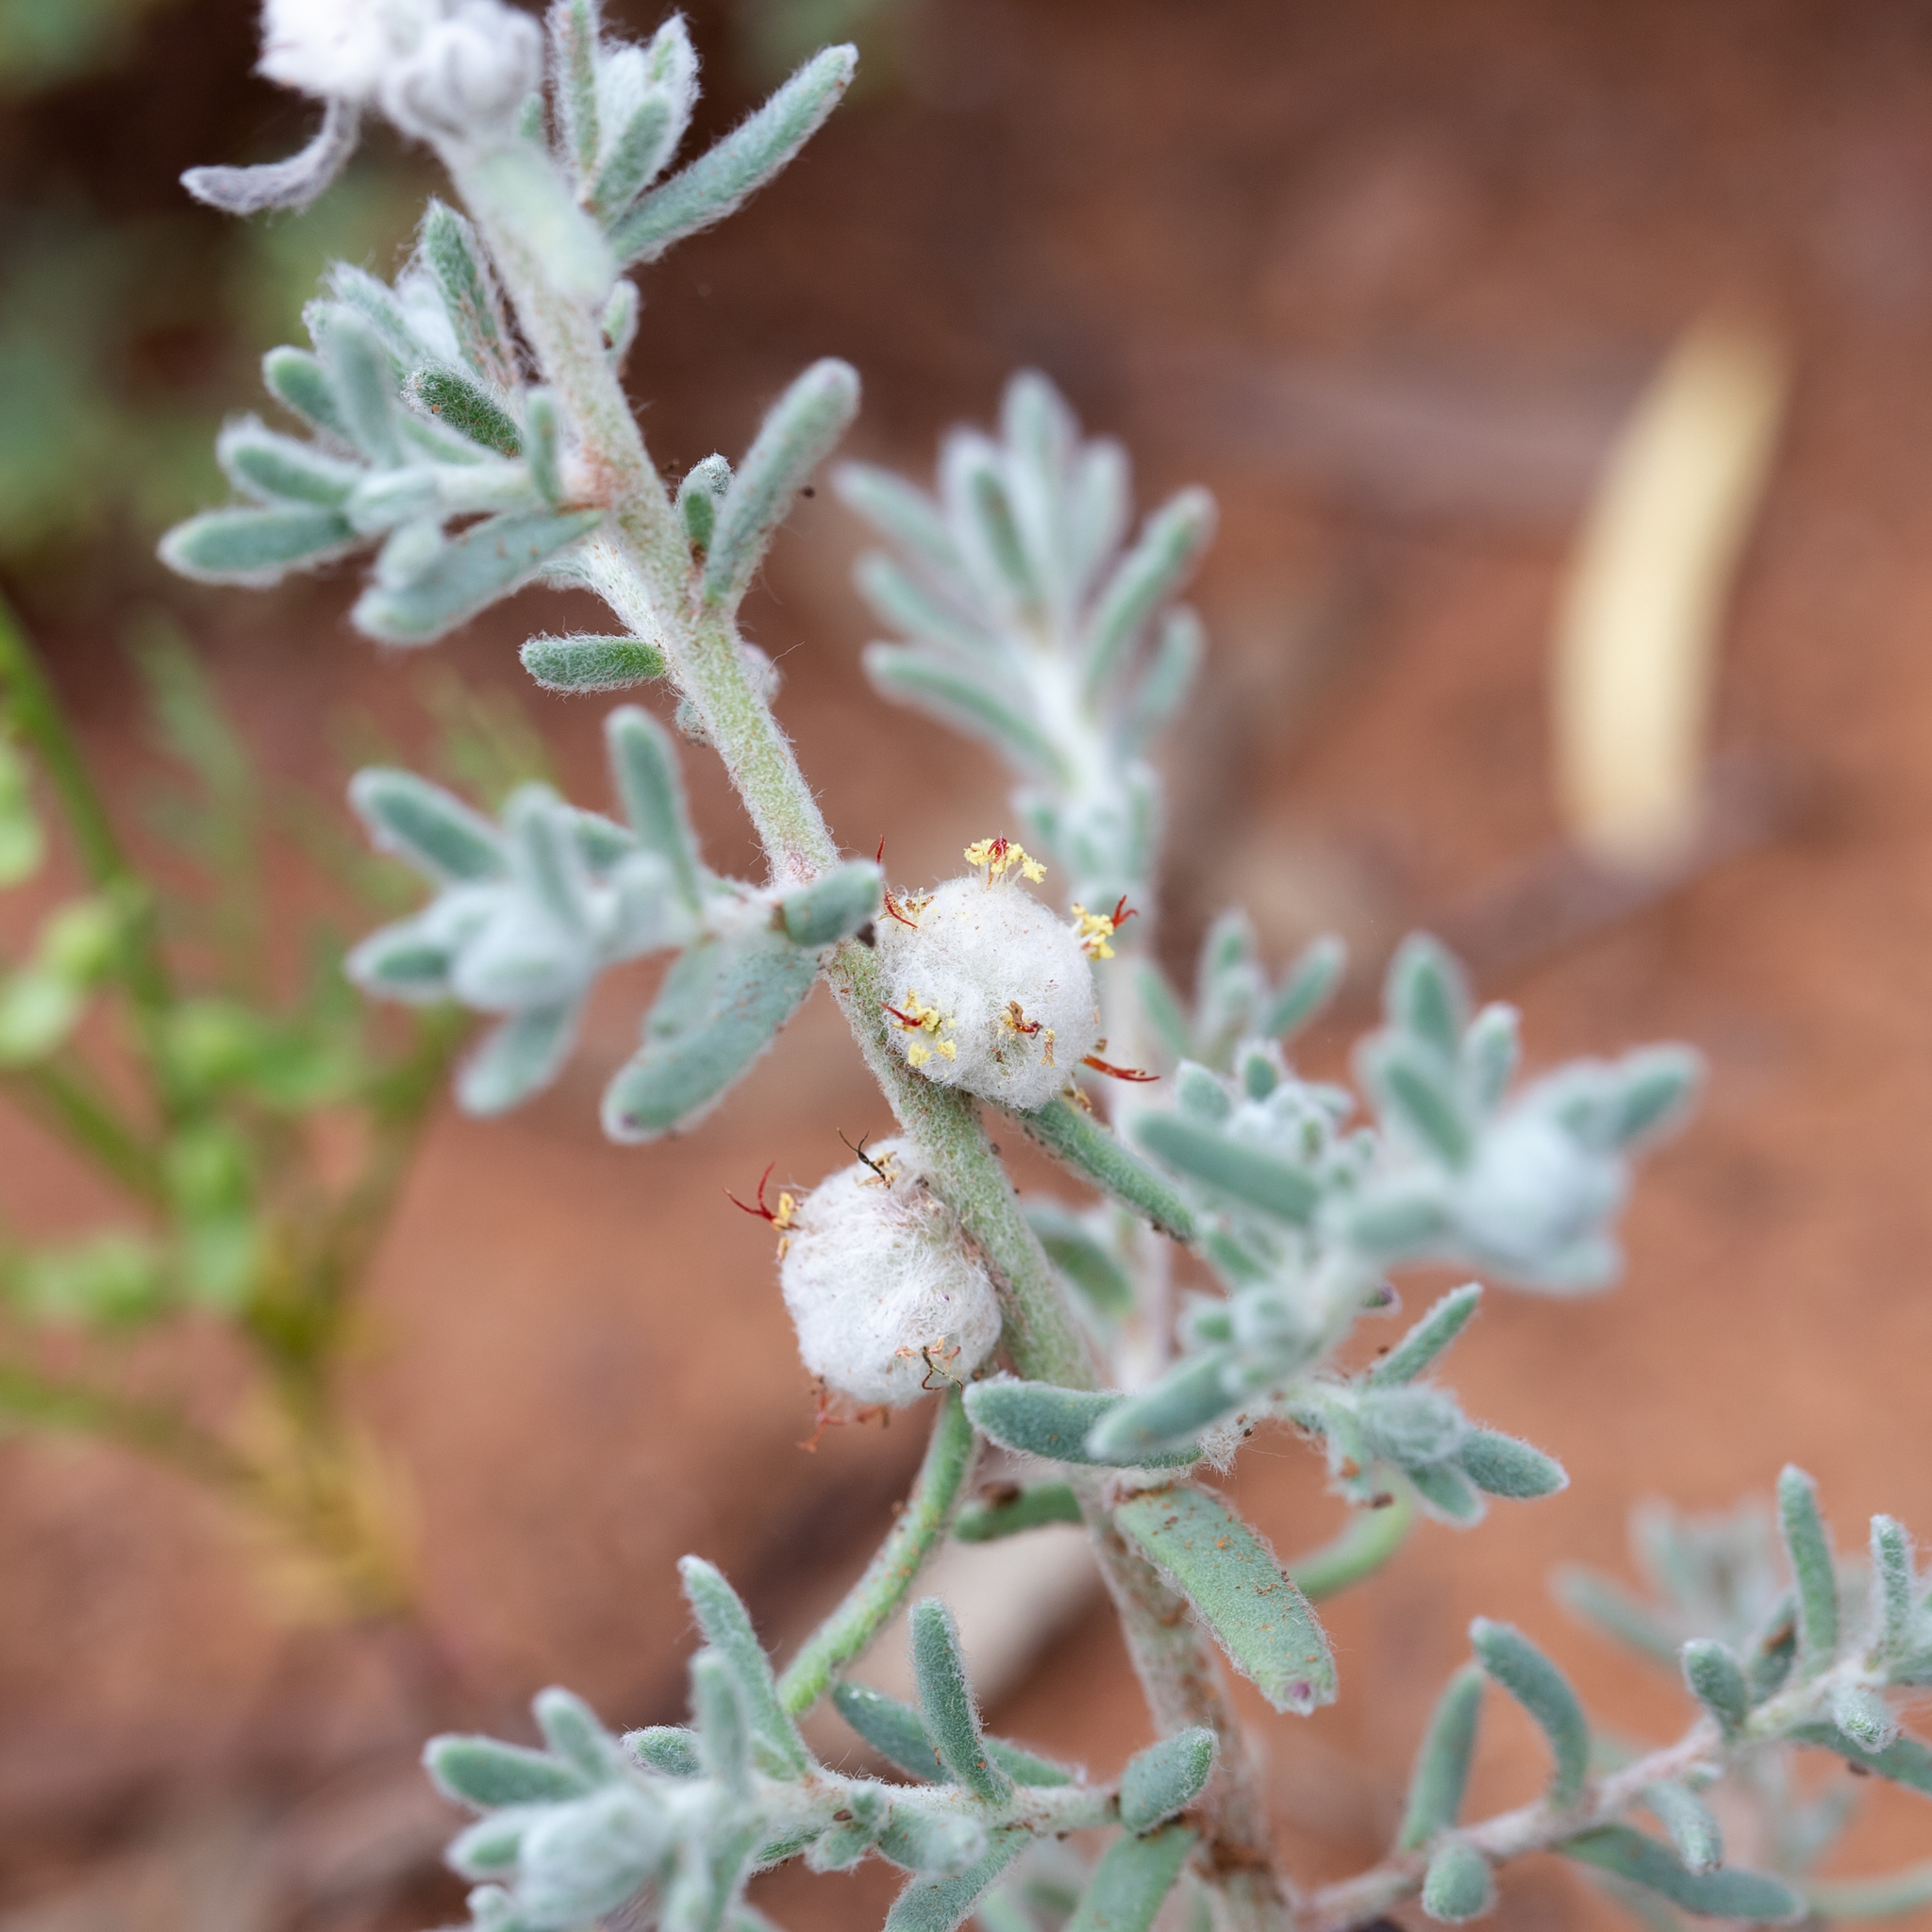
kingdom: Plantae
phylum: Tracheophyta
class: Magnoliopsida
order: Caryophyllales
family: Amaranthaceae
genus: Dissocarpus
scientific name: Dissocarpus paradoxus
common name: Bur-saltbush
